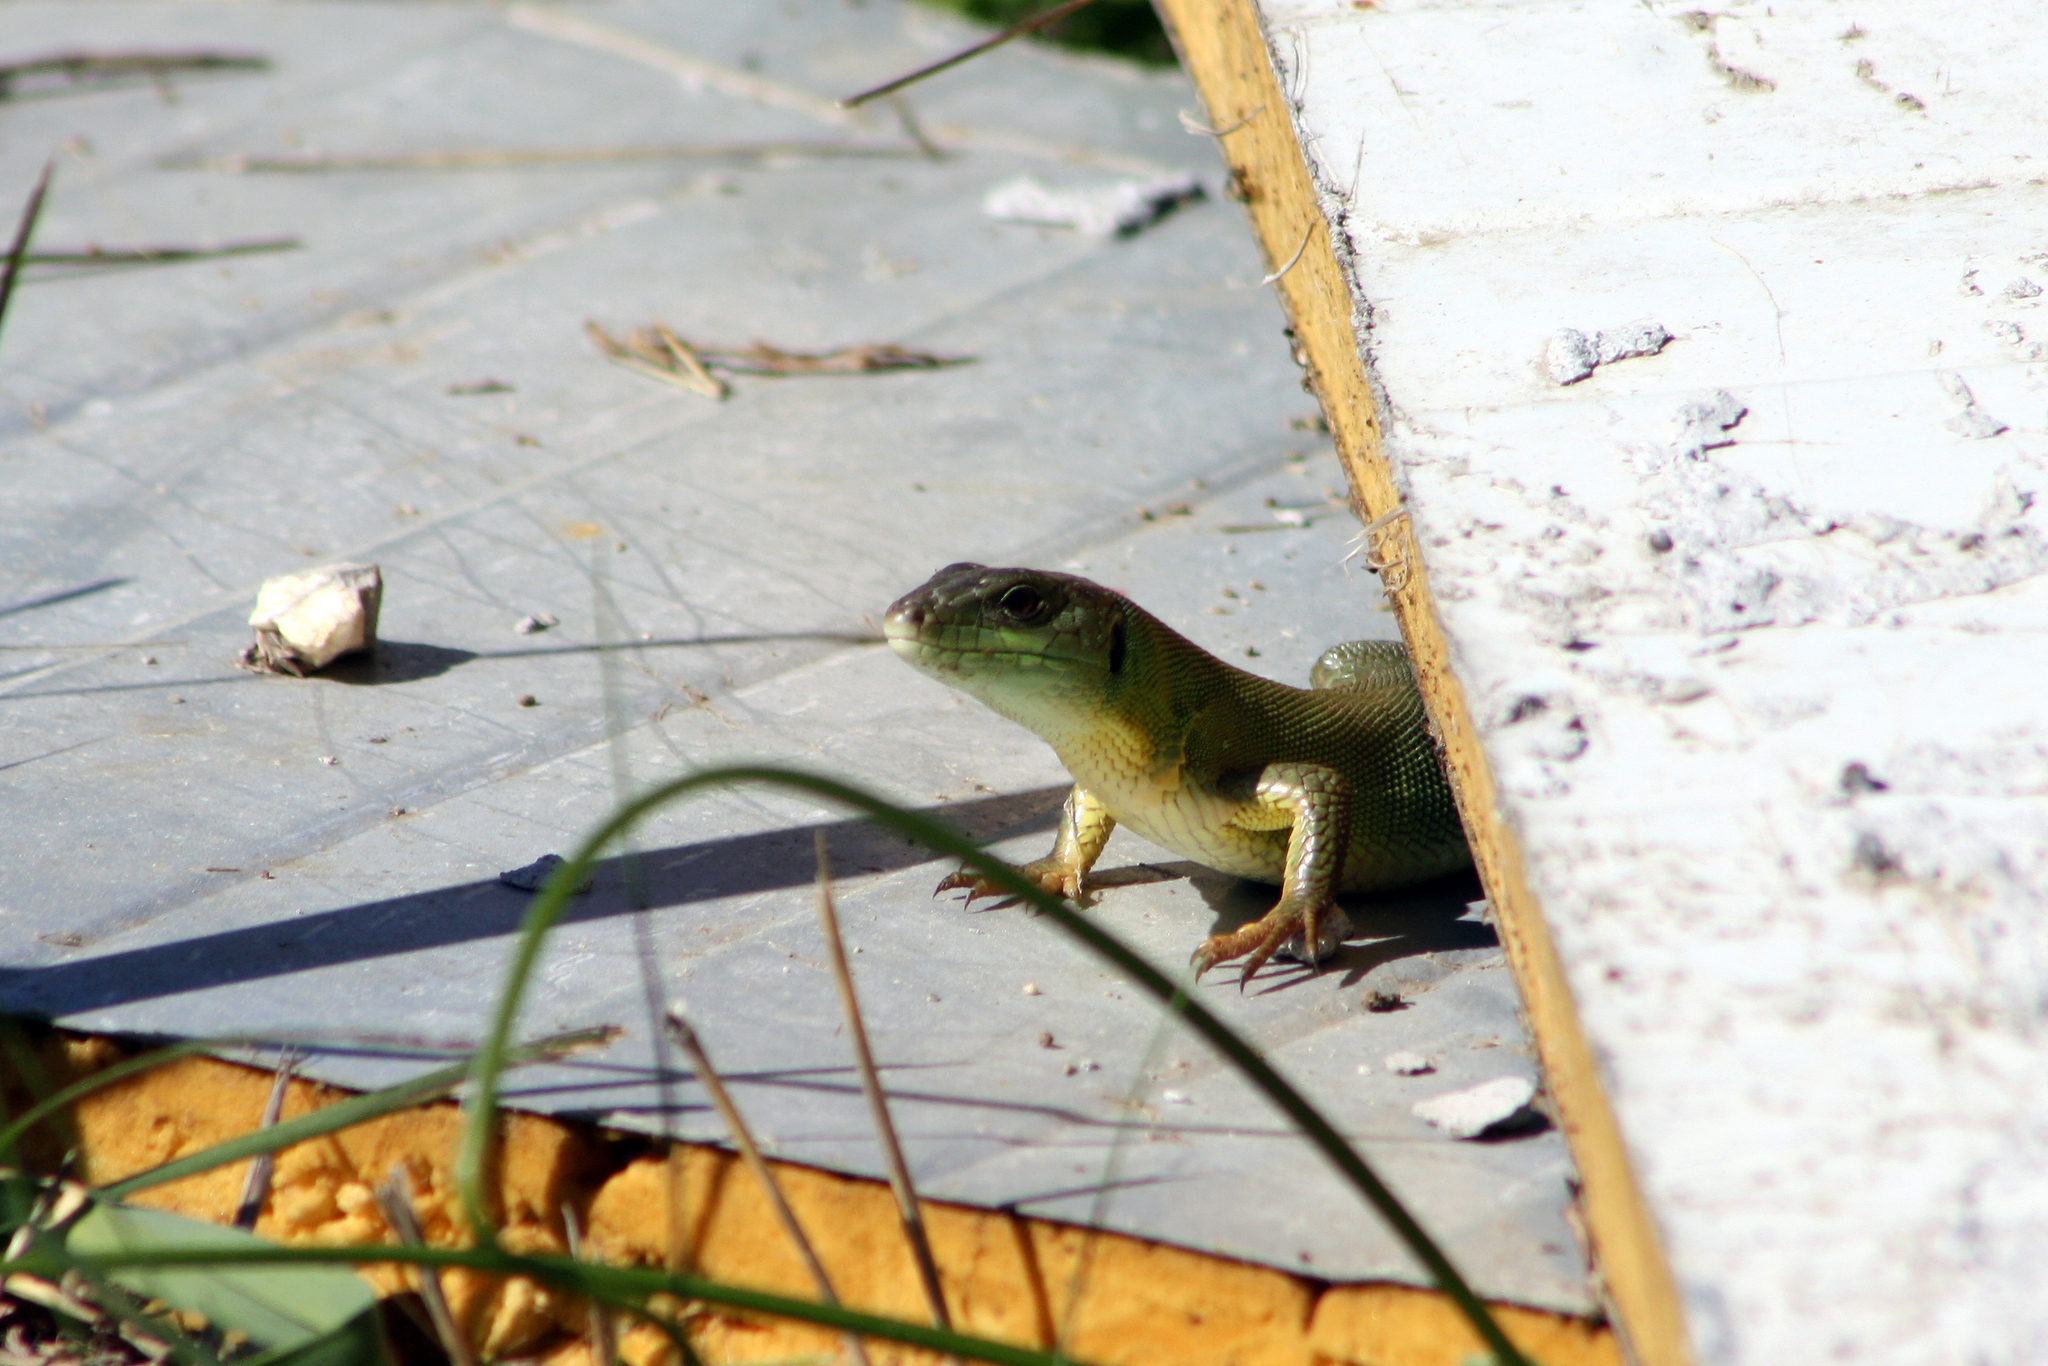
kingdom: Animalia
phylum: Chordata
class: Squamata
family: Lacertidae
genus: Lacerta
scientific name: Lacerta trilineata
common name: Balkan green lizard
